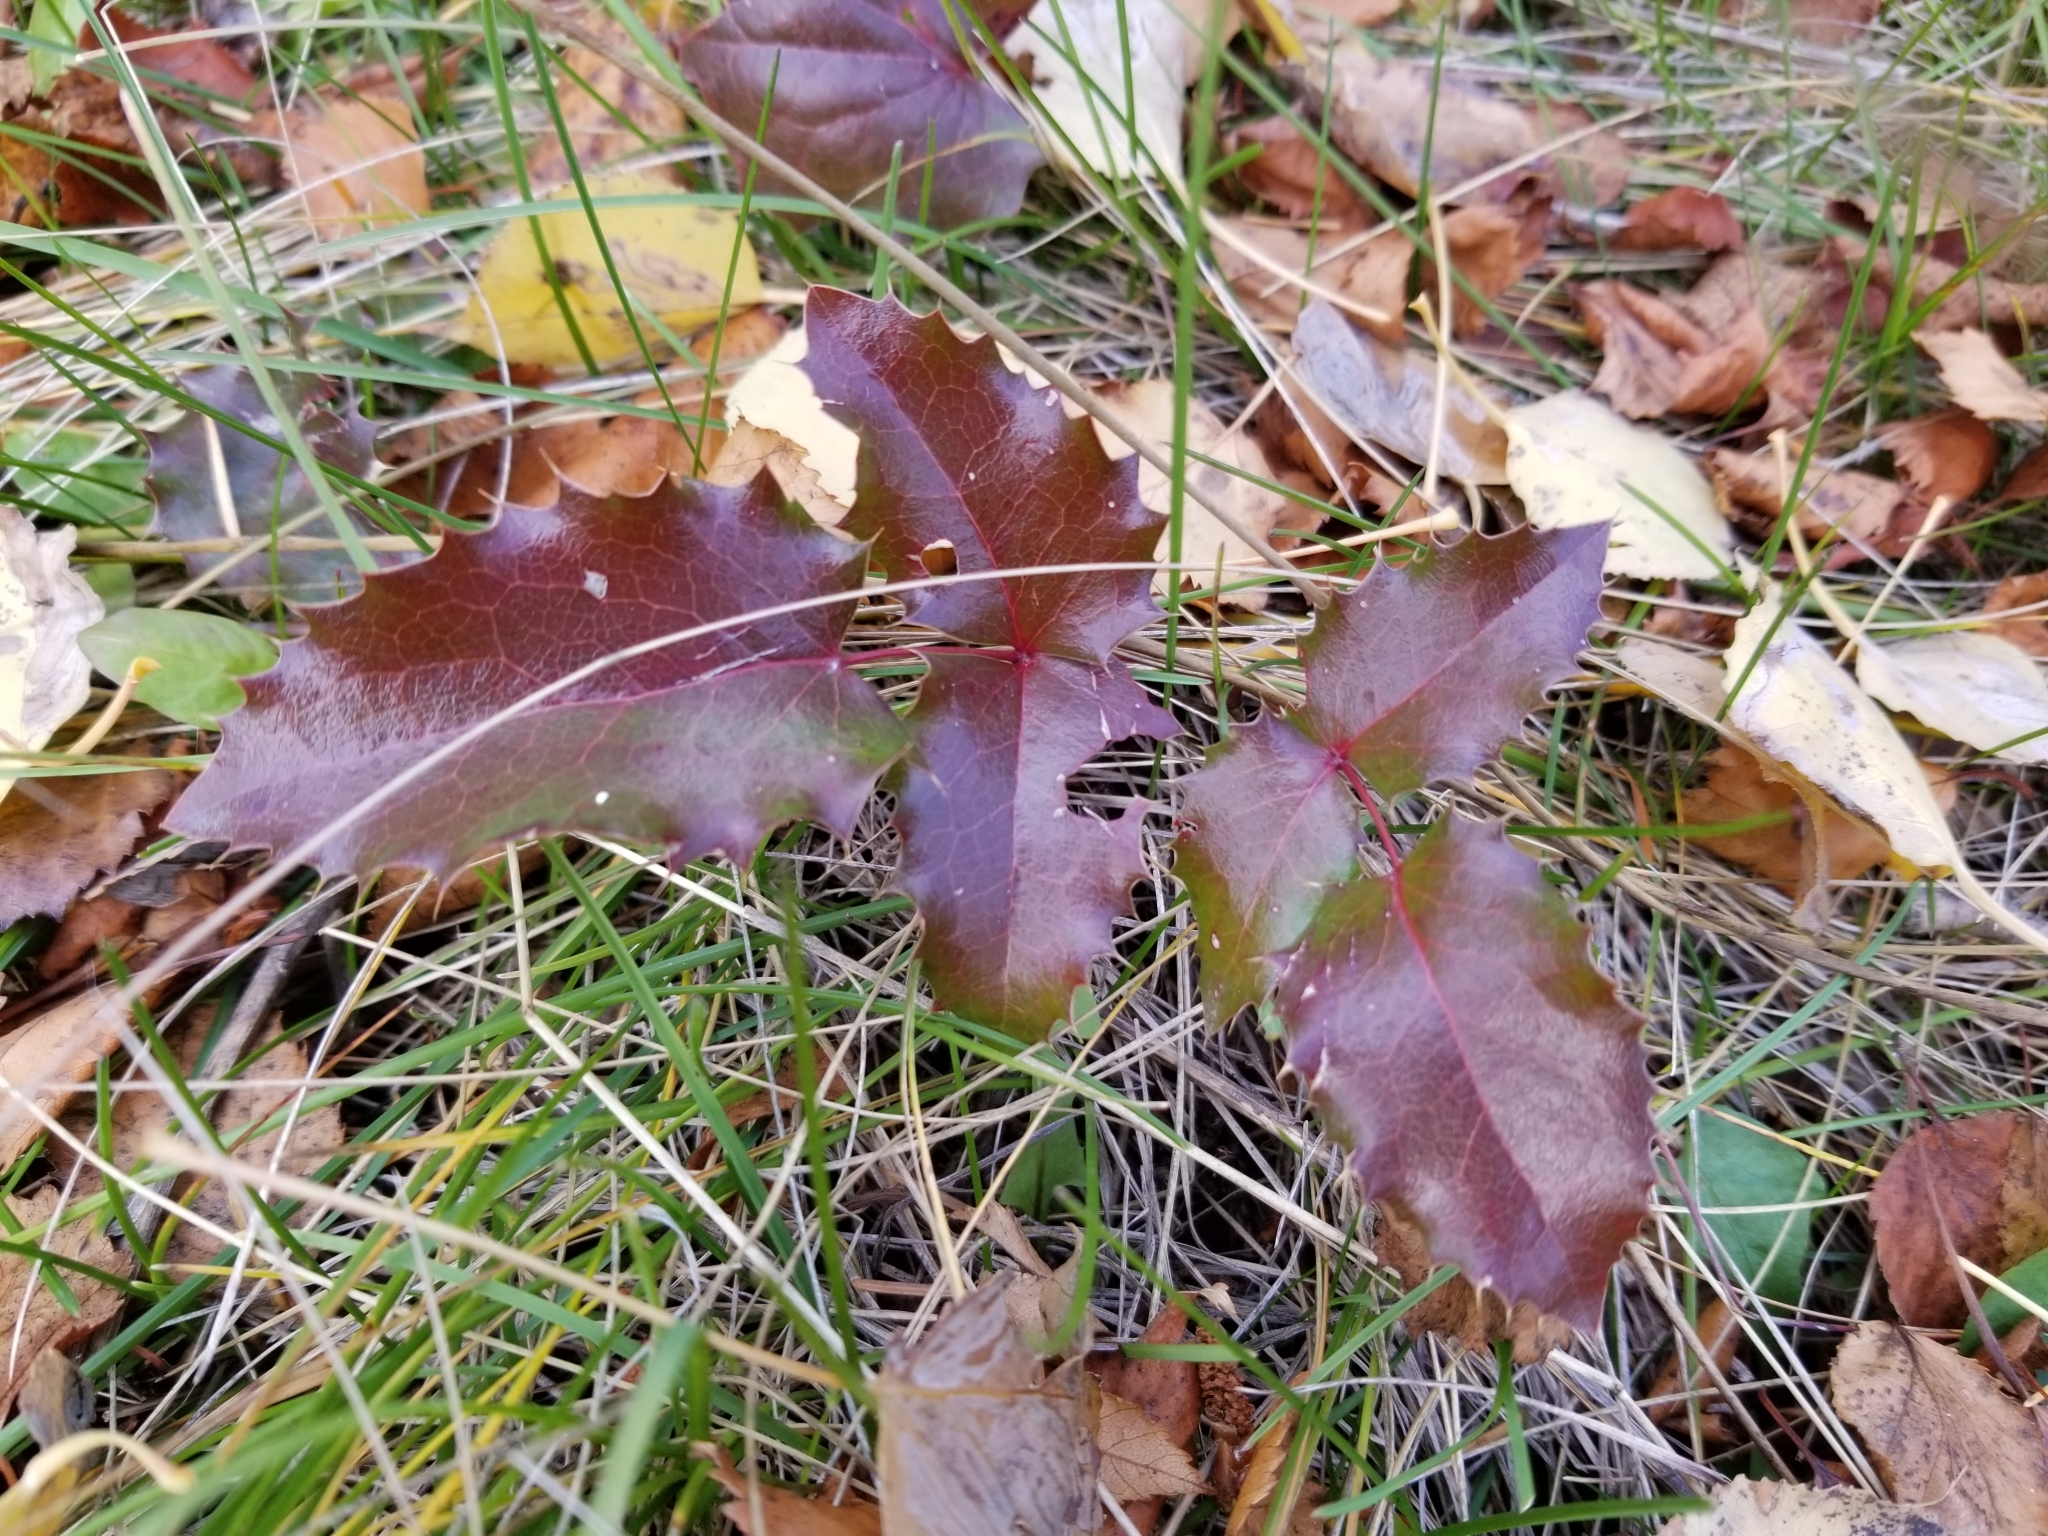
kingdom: Plantae
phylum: Tracheophyta
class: Magnoliopsida
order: Ranunculales
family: Berberidaceae
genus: Mahonia
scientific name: Mahonia aquifolium
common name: Oregon-grape
